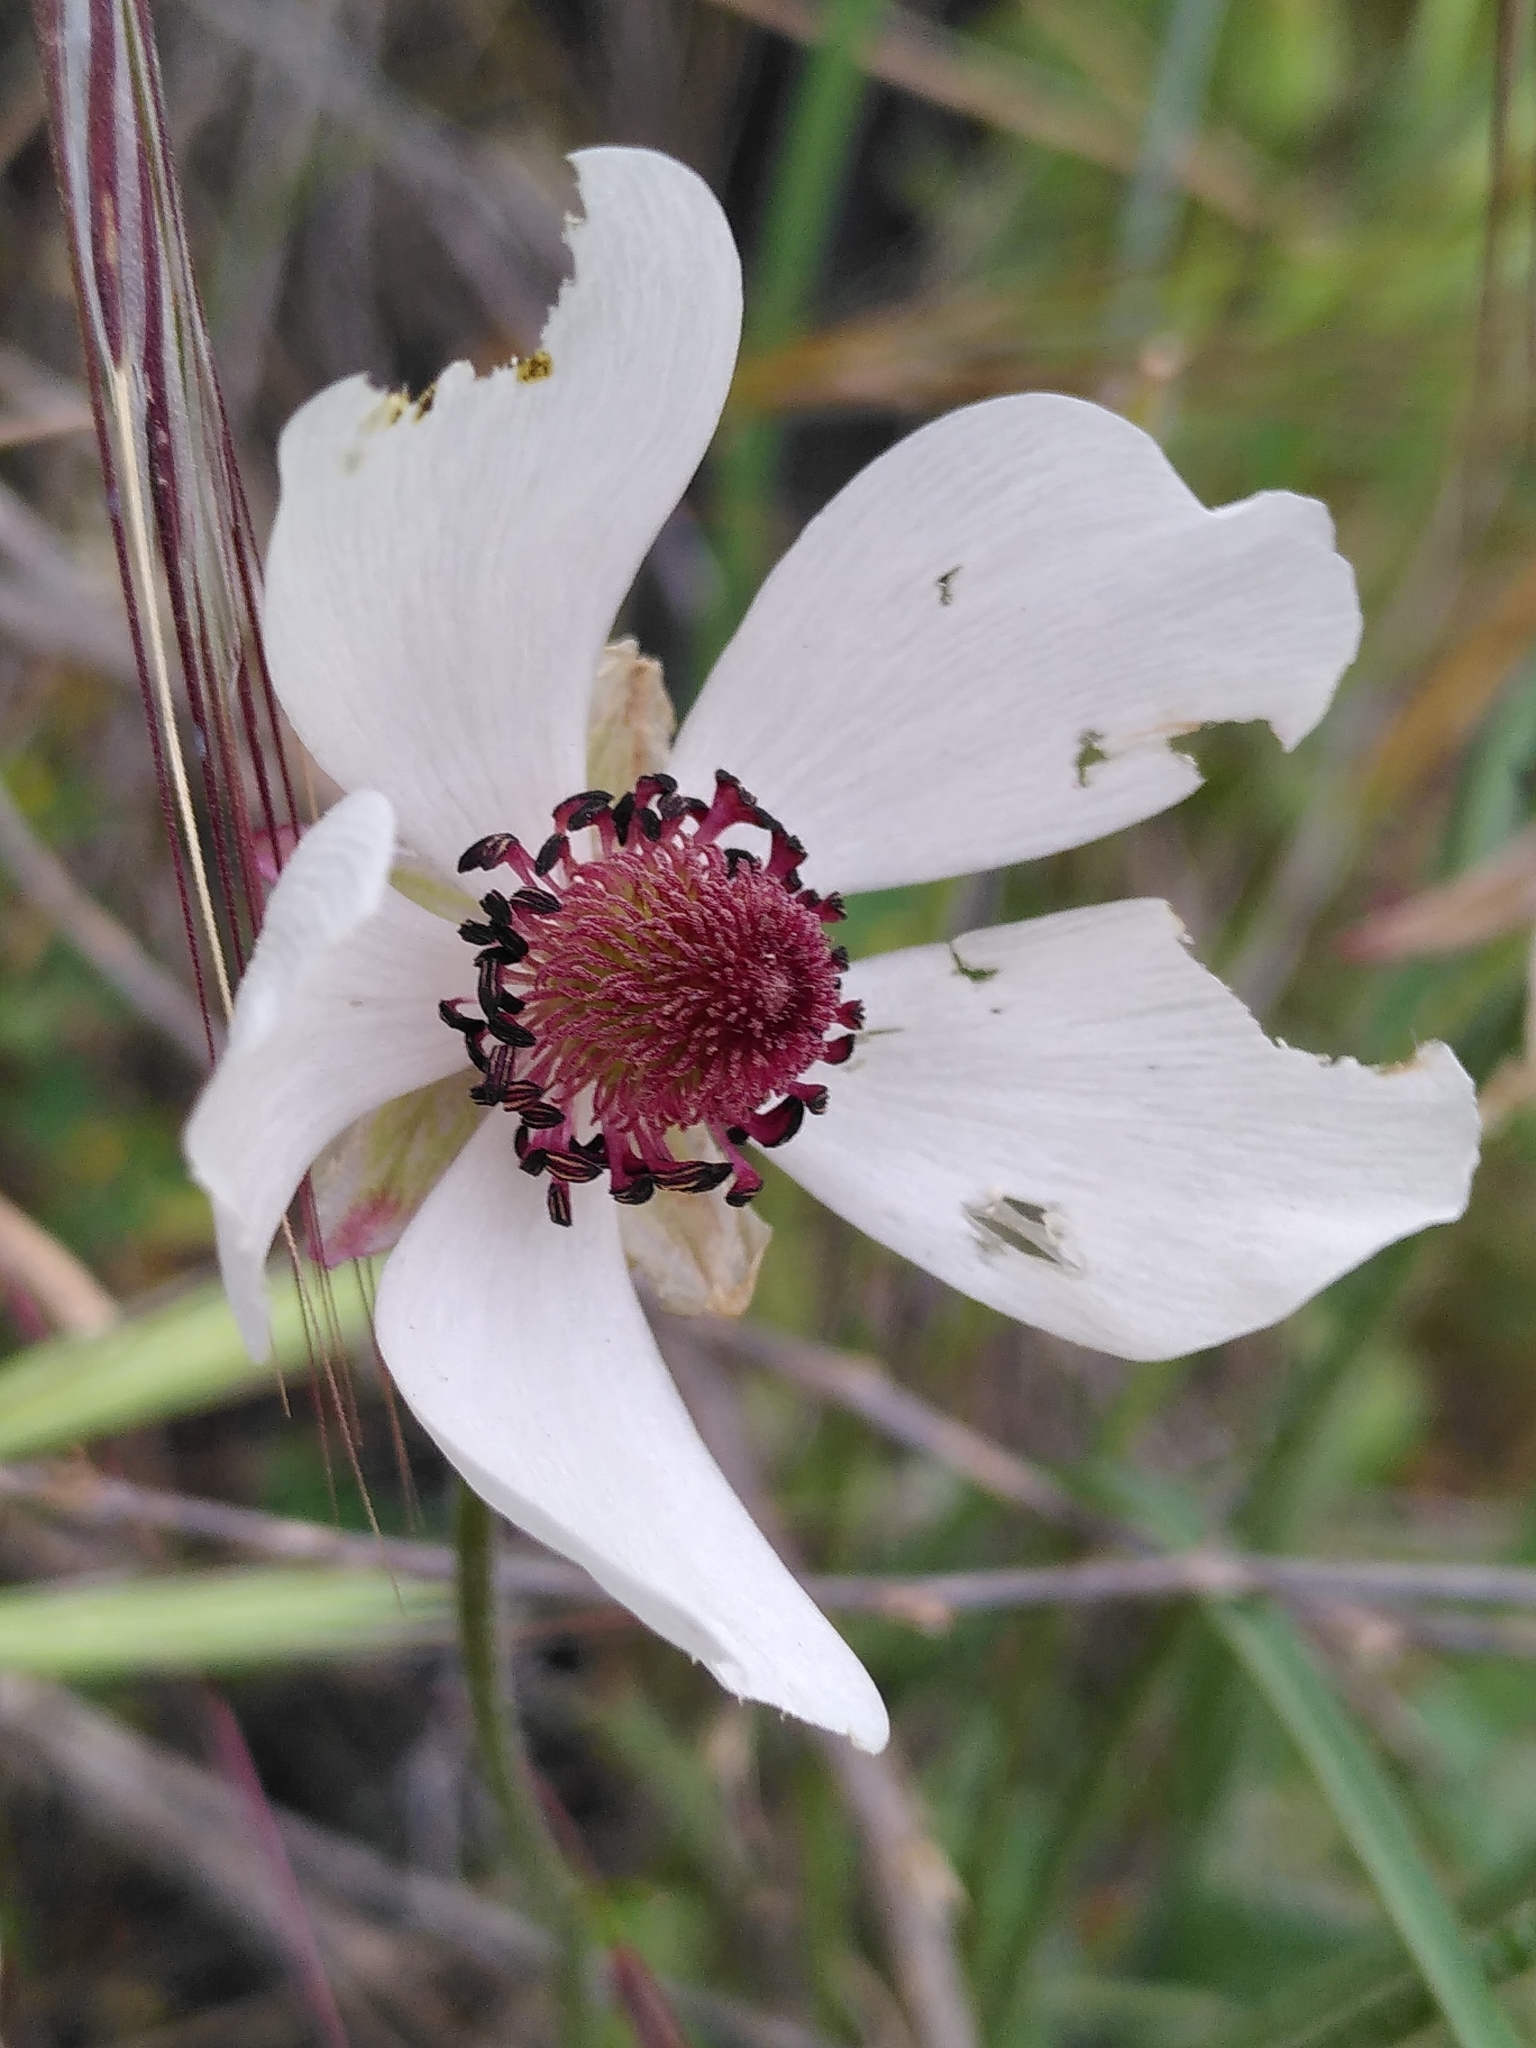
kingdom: Plantae
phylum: Tracheophyta
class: Magnoliopsida
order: Ranunculales
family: Ranunculaceae
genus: Ranunculus
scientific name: Ranunculus asiaticus
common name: Persian buttercup
